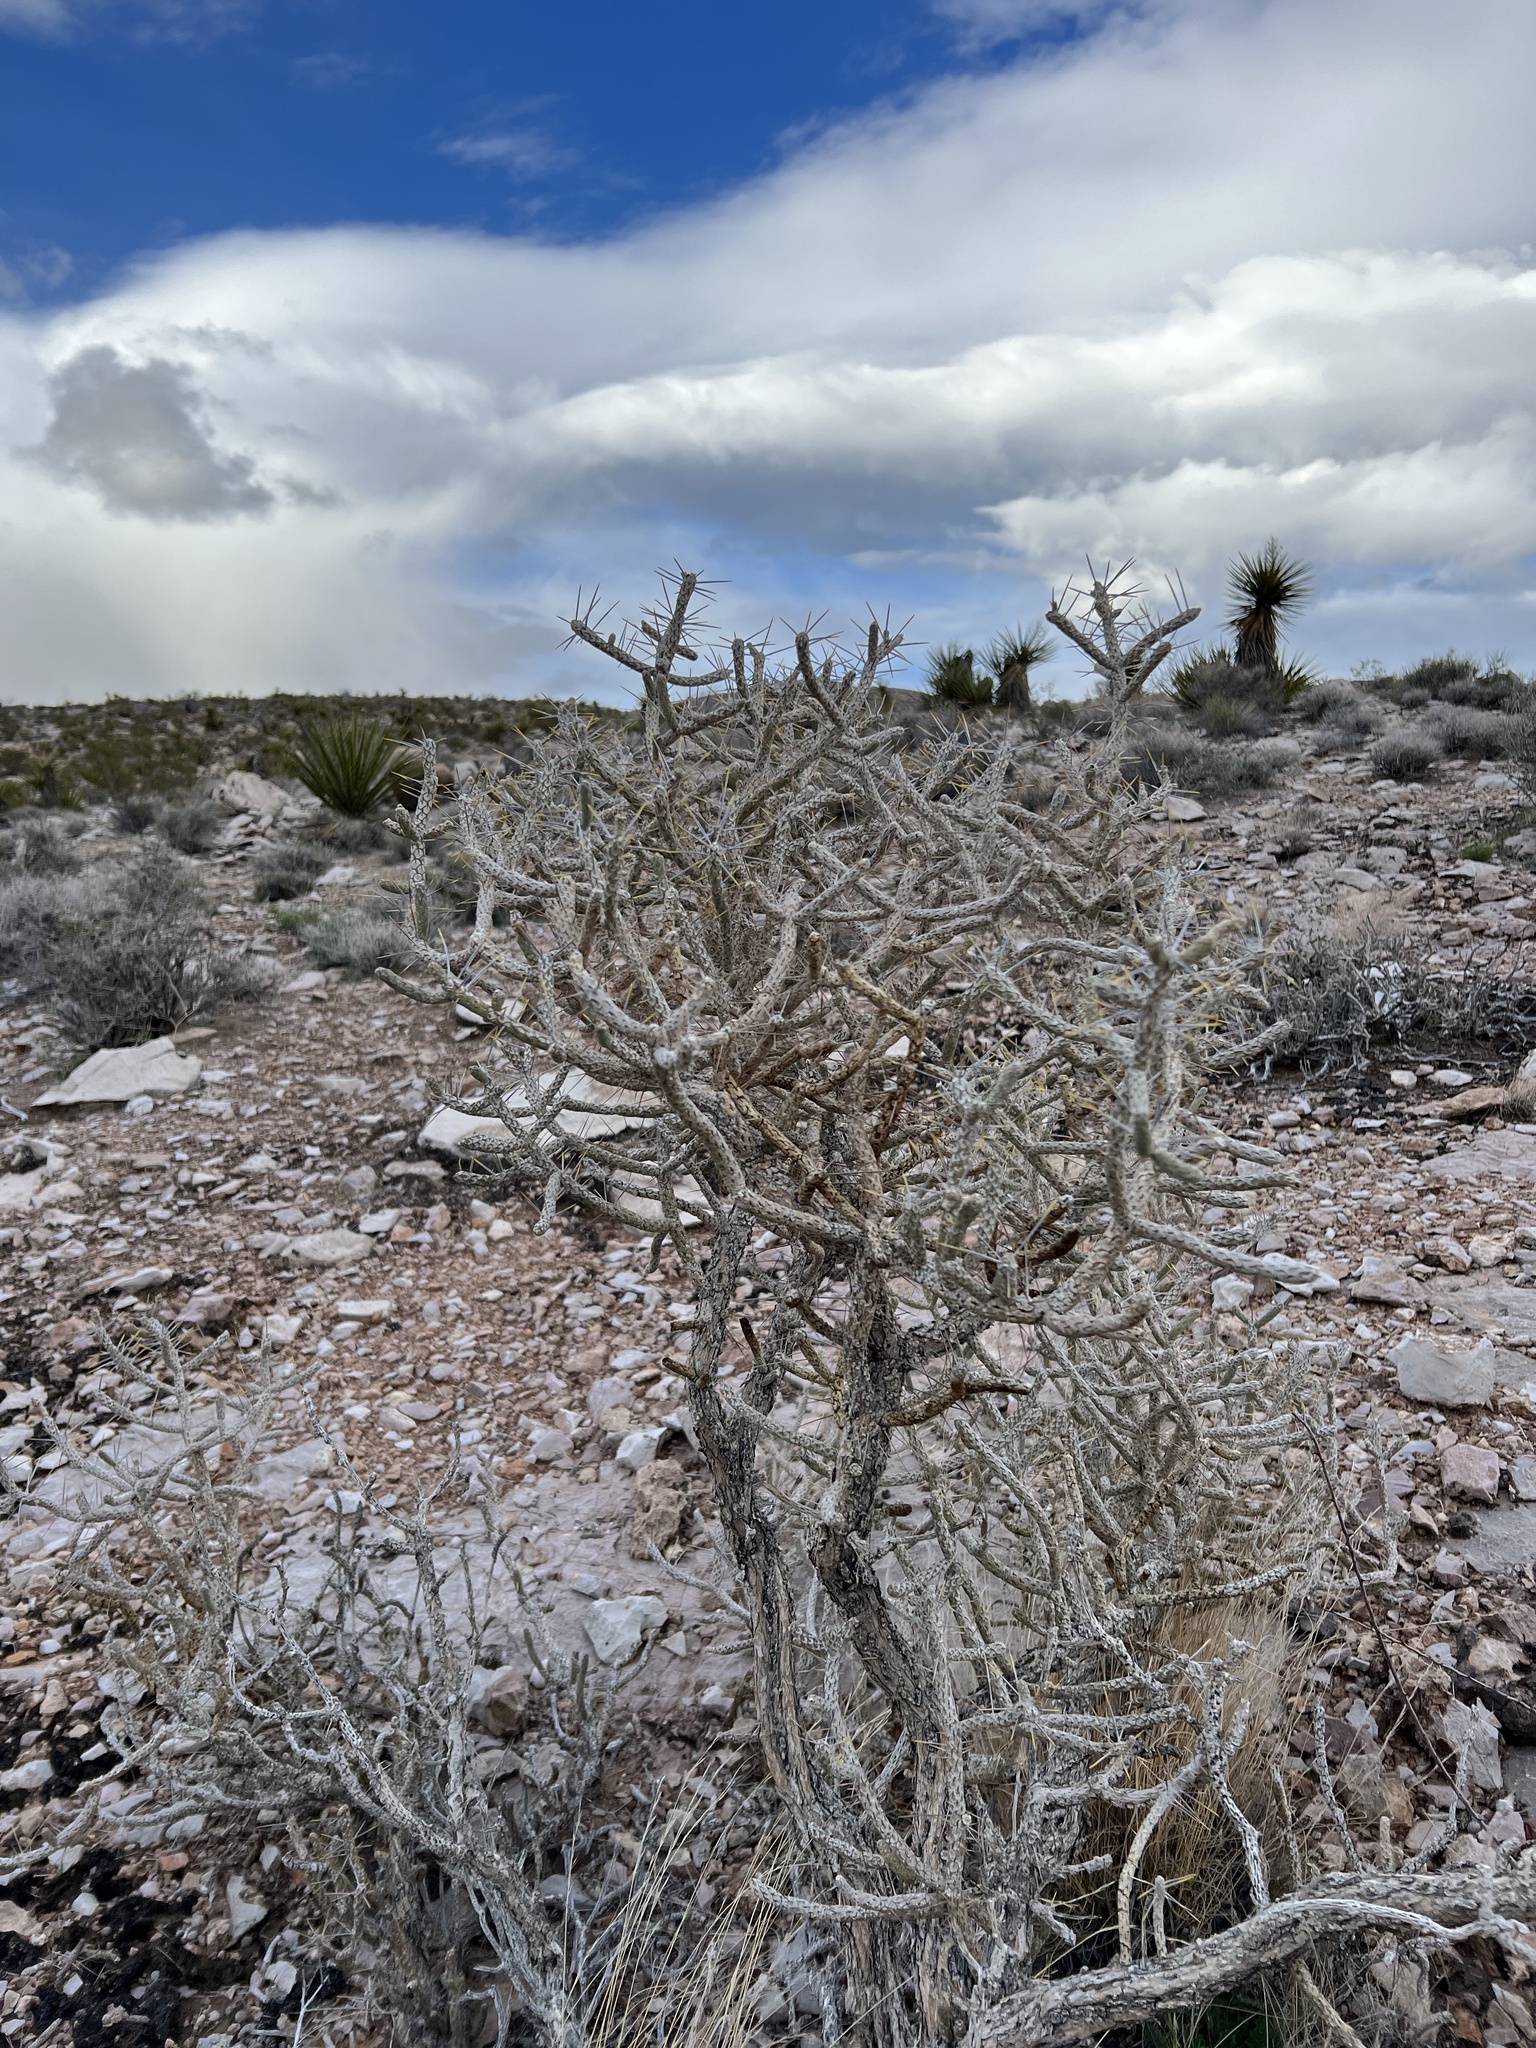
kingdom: Plantae
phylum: Tracheophyta
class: Magnoliopsida
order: Caryophyllales
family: Cactaceae
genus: Cylindropuntia
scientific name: Cylindropuntia ramosissima
